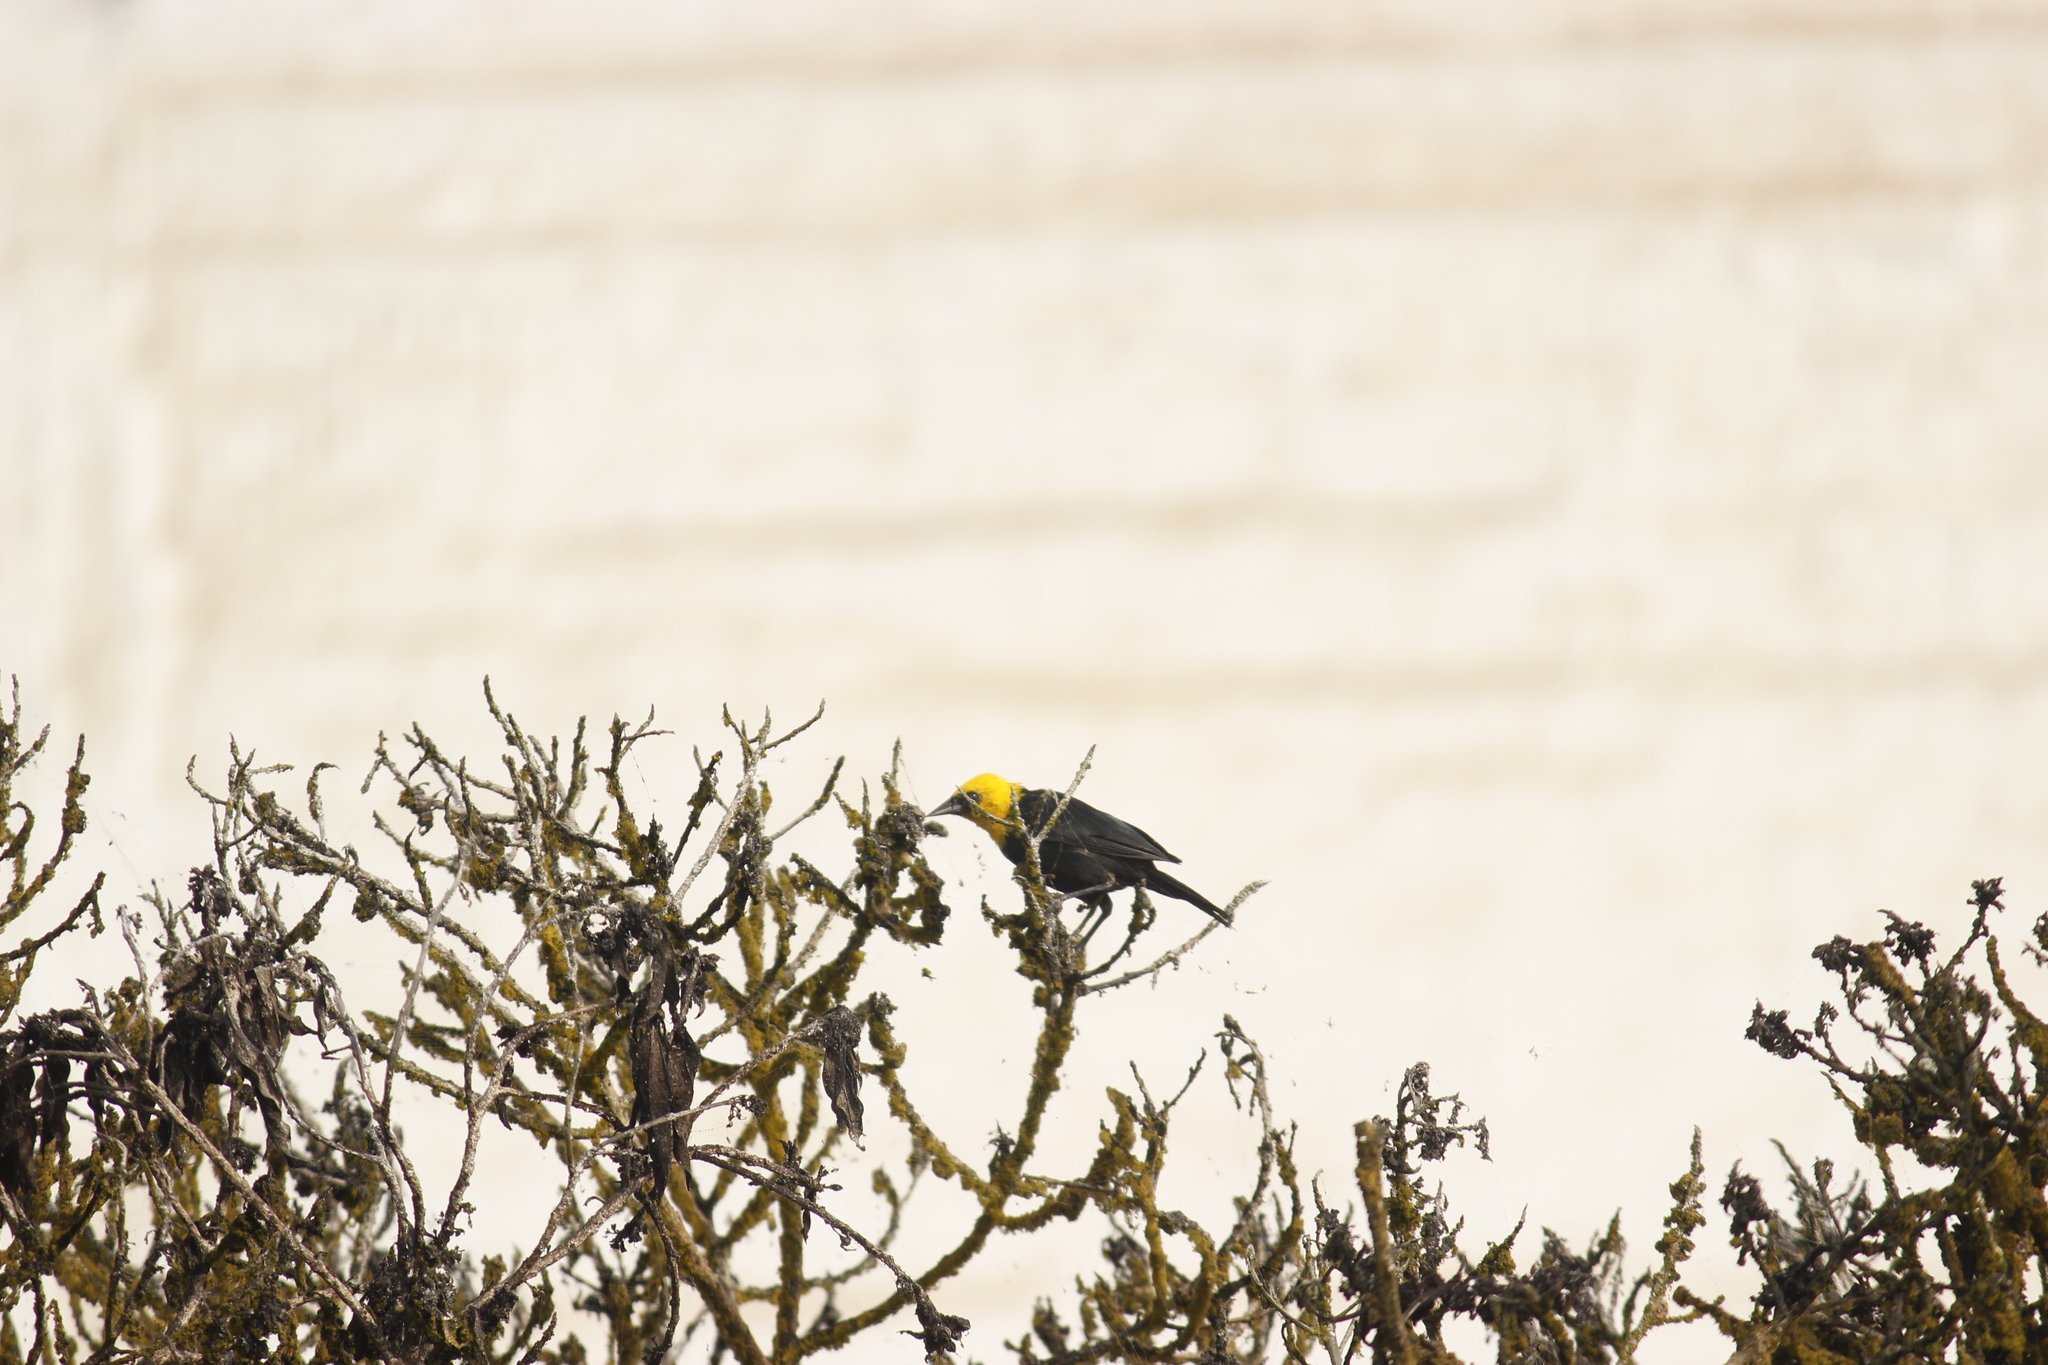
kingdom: Animalia
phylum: Chordata
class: Aves
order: Passeriformes
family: Icteridae
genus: Chrysomus
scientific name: Chrysomus icterocephalus
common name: Yellow-hooded blackbird
